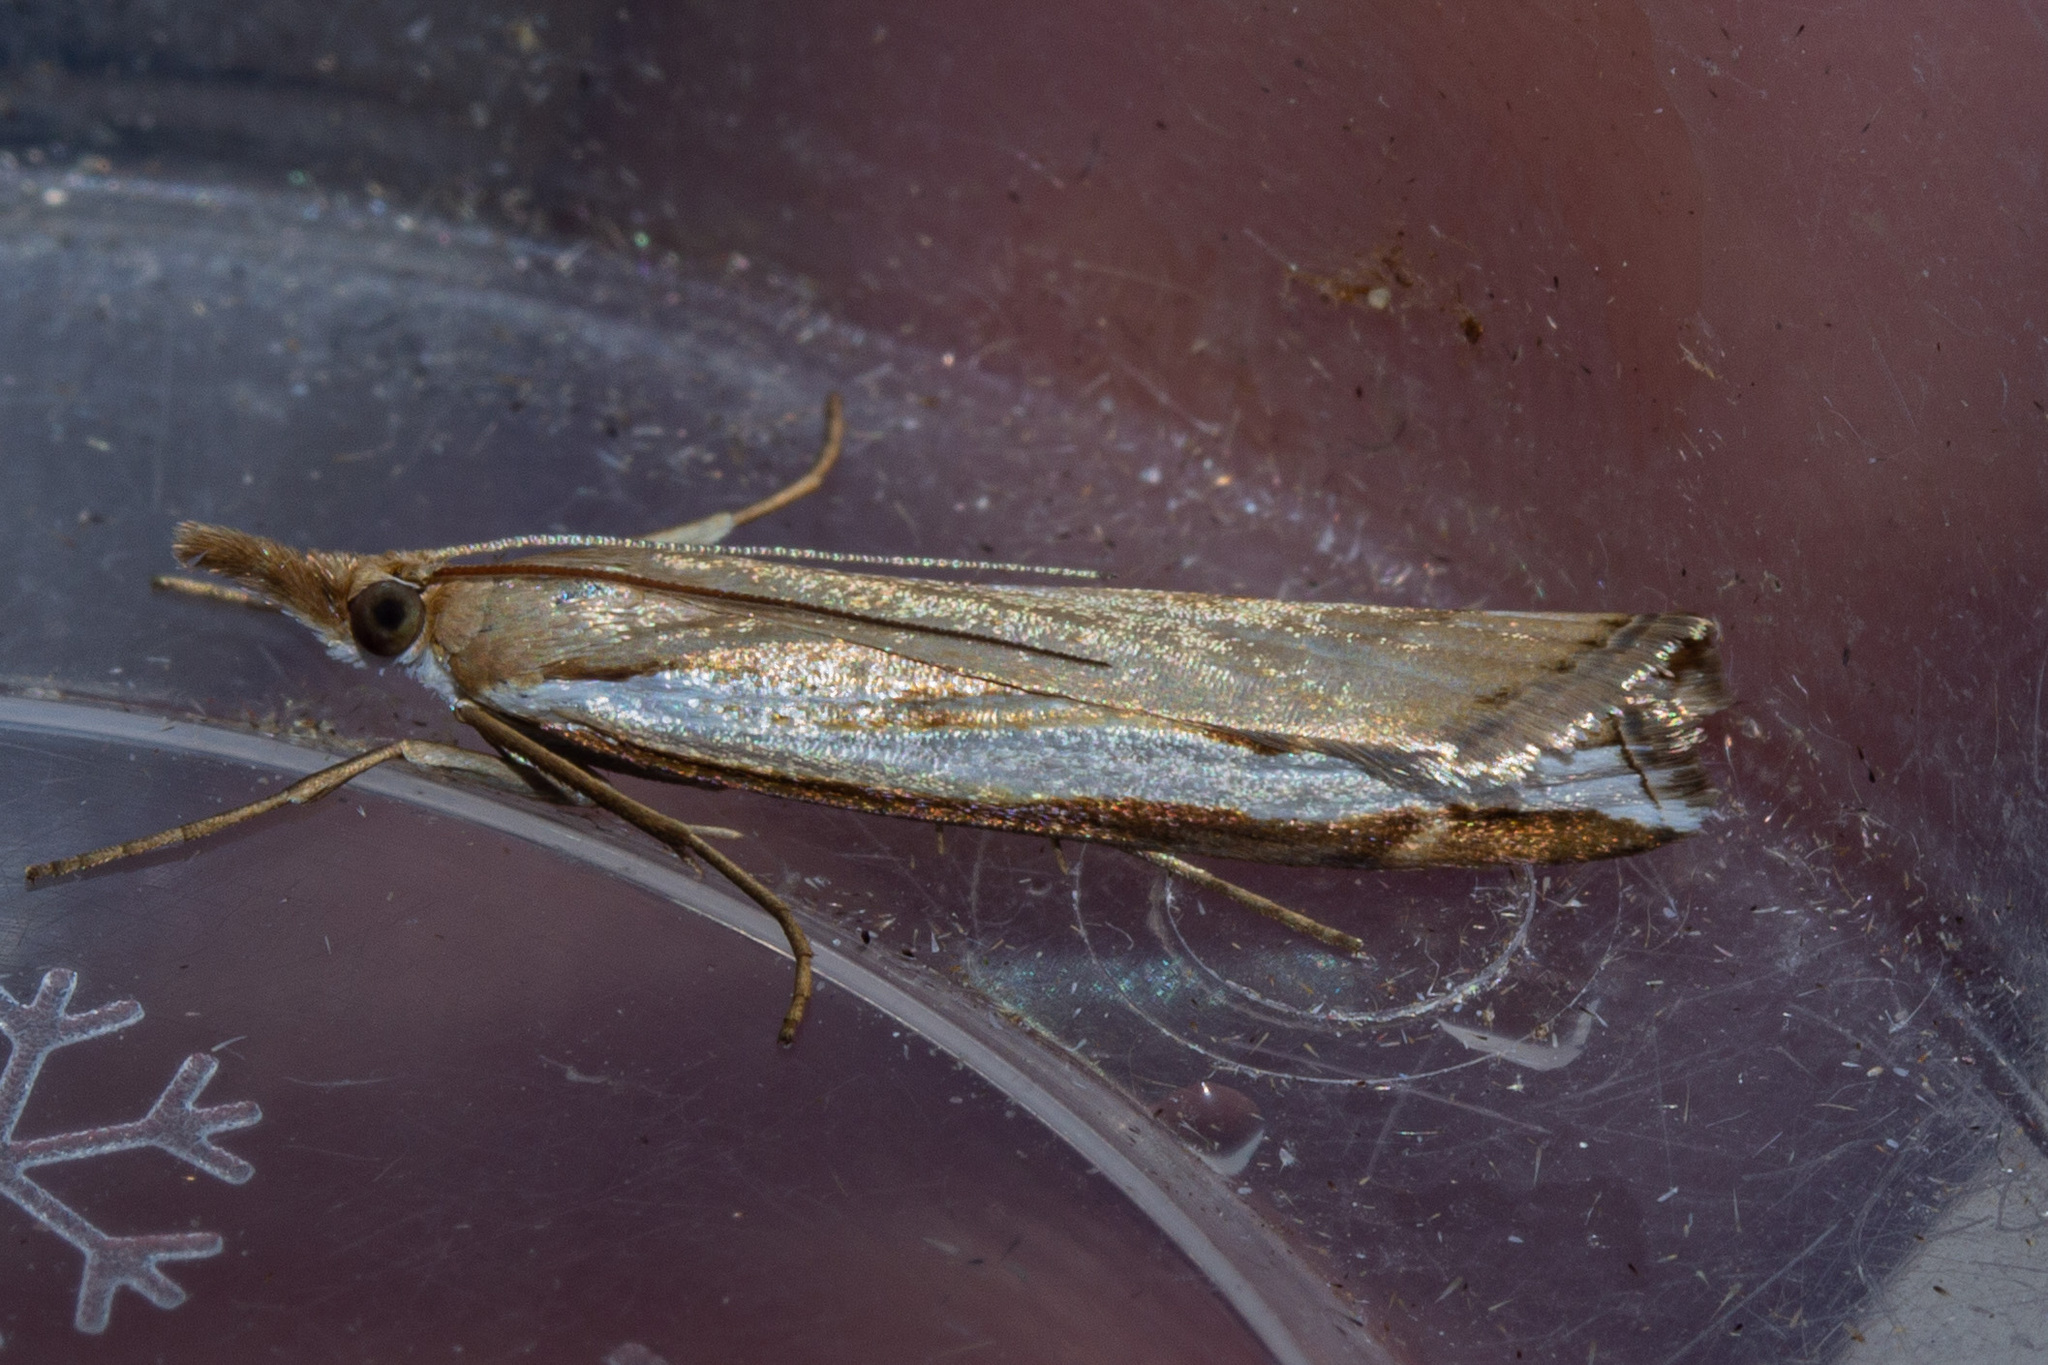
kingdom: Animalia
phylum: Arthropoda
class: Insecta
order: Lepidoptera
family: Crambidae
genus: Orocrambus
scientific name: Orocrambus flexuosellus
